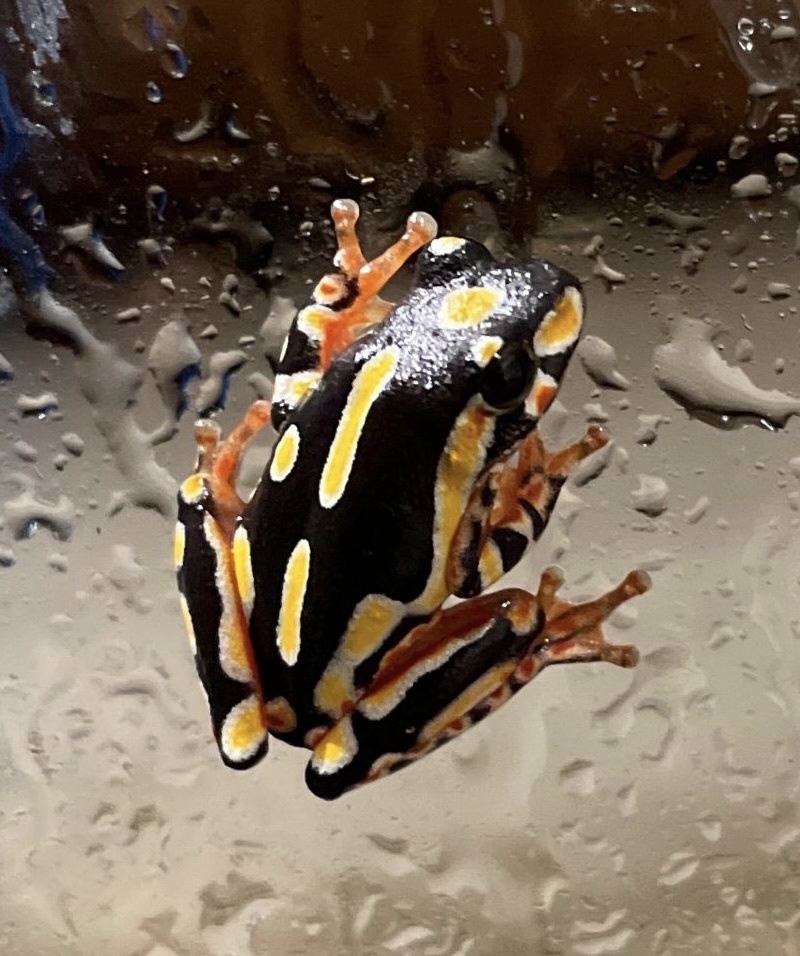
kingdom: Animalia
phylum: Chordata
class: Amphibia
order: Anura
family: Hyperoliidae
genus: Hyperolius
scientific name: Hyperolius marmoratus
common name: Painted reed frog
